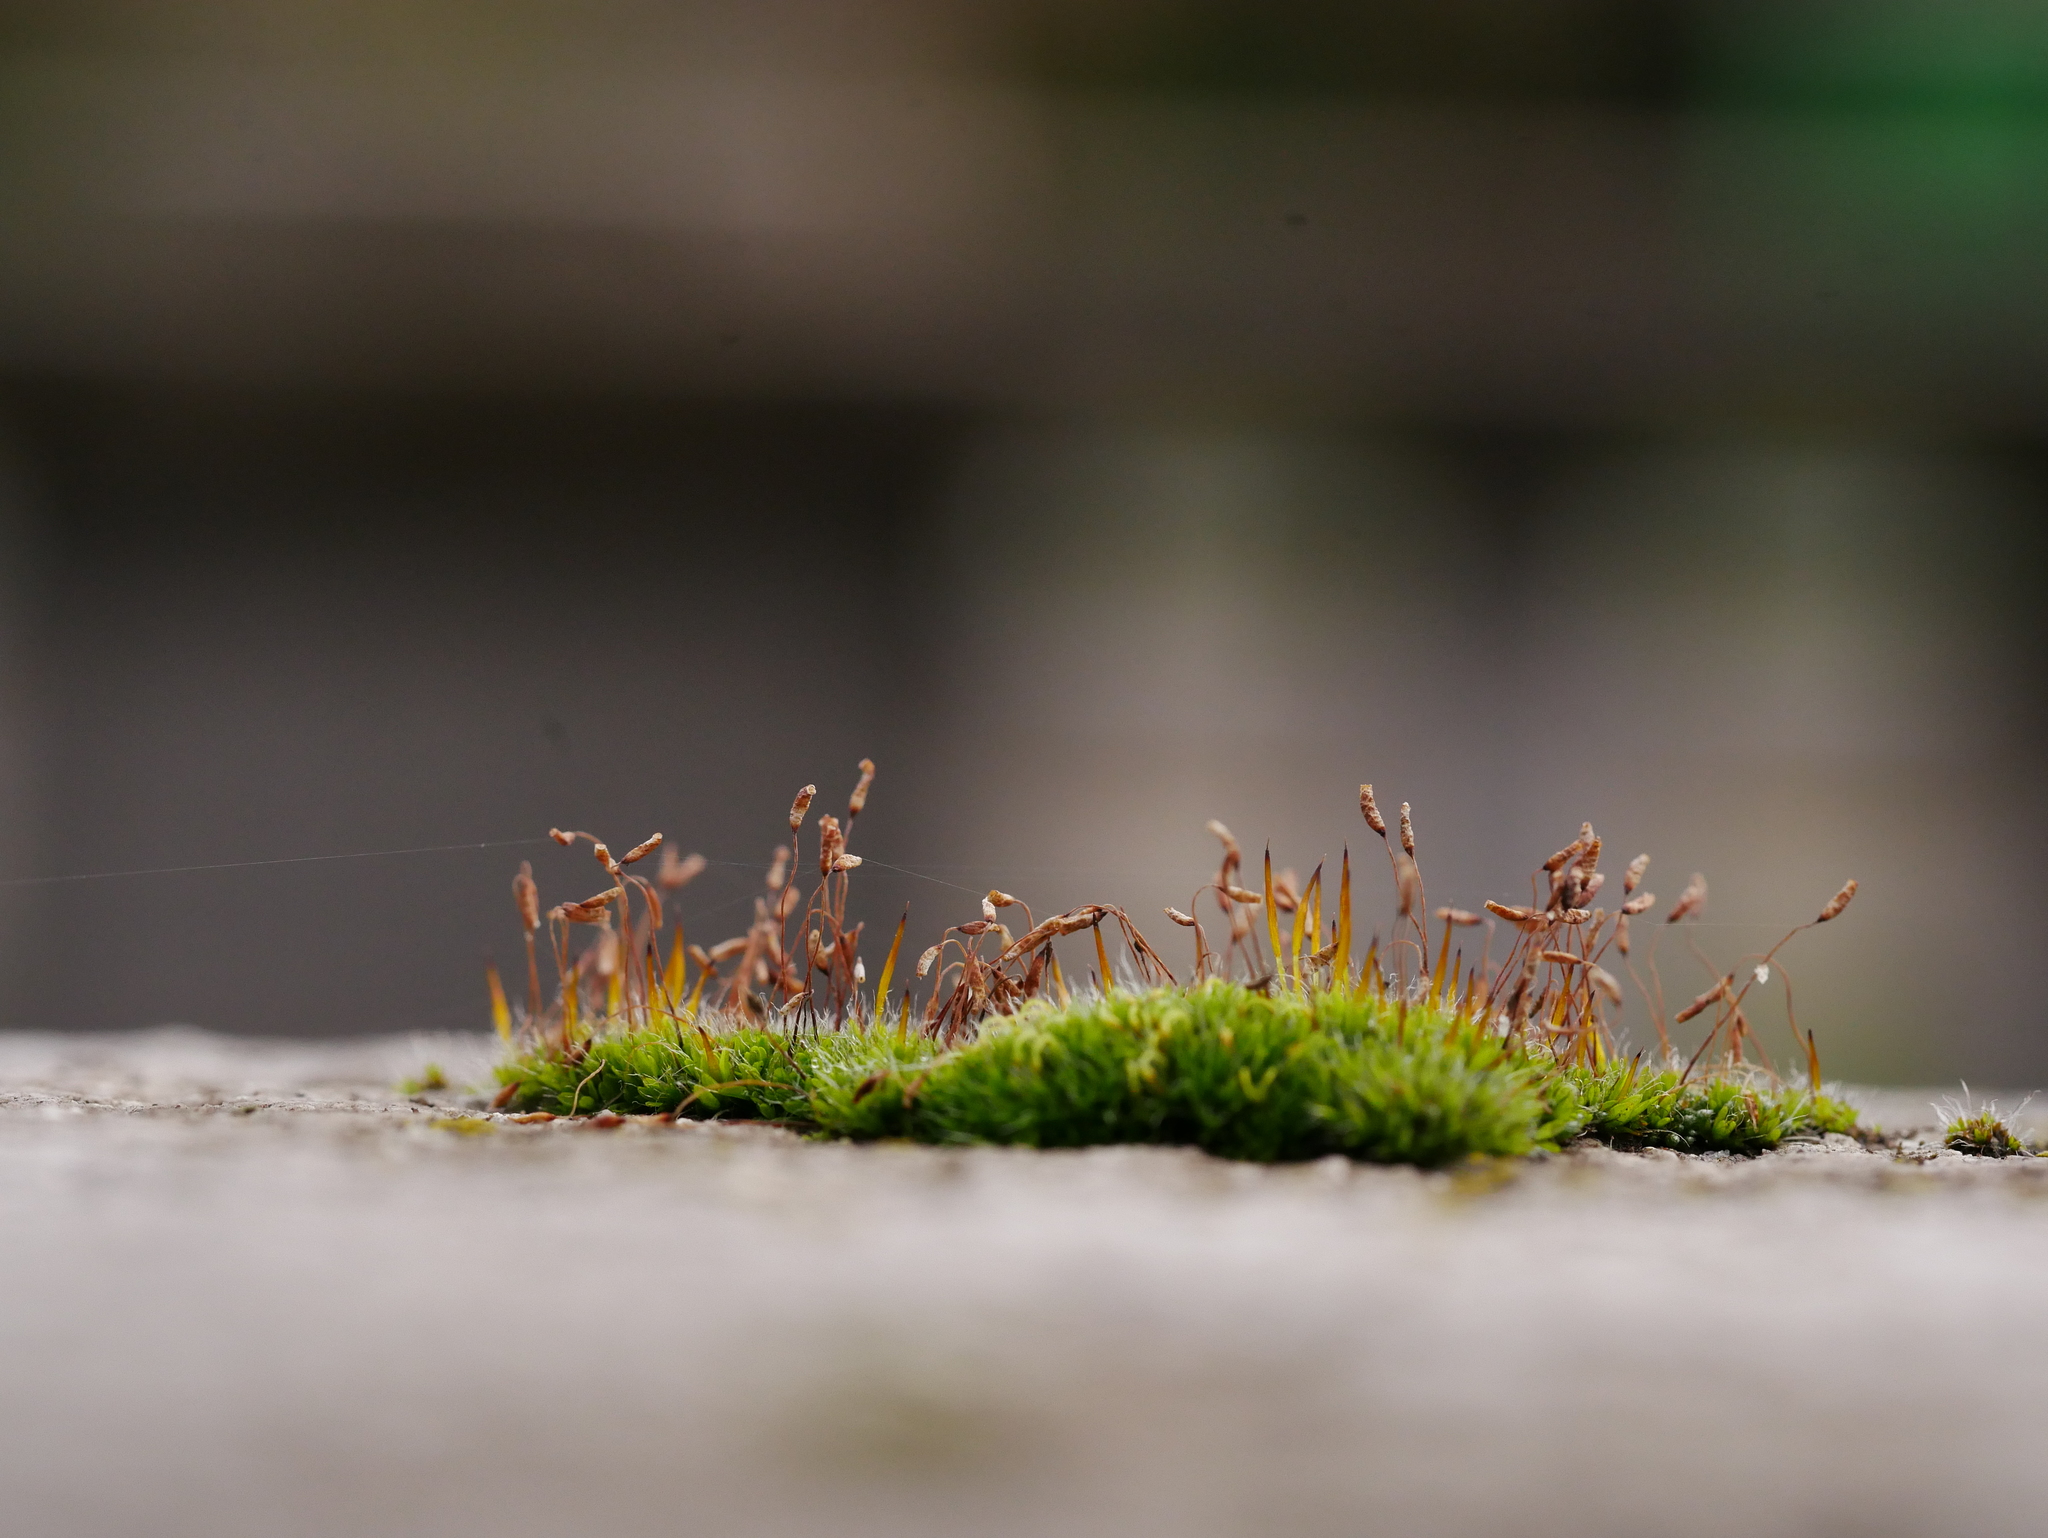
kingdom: Plantae
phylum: Bryophyta
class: Bryopsida
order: Pottiales
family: Pottiaceae
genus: Tortula
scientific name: Tortula muralis
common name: Wall screw-moss
